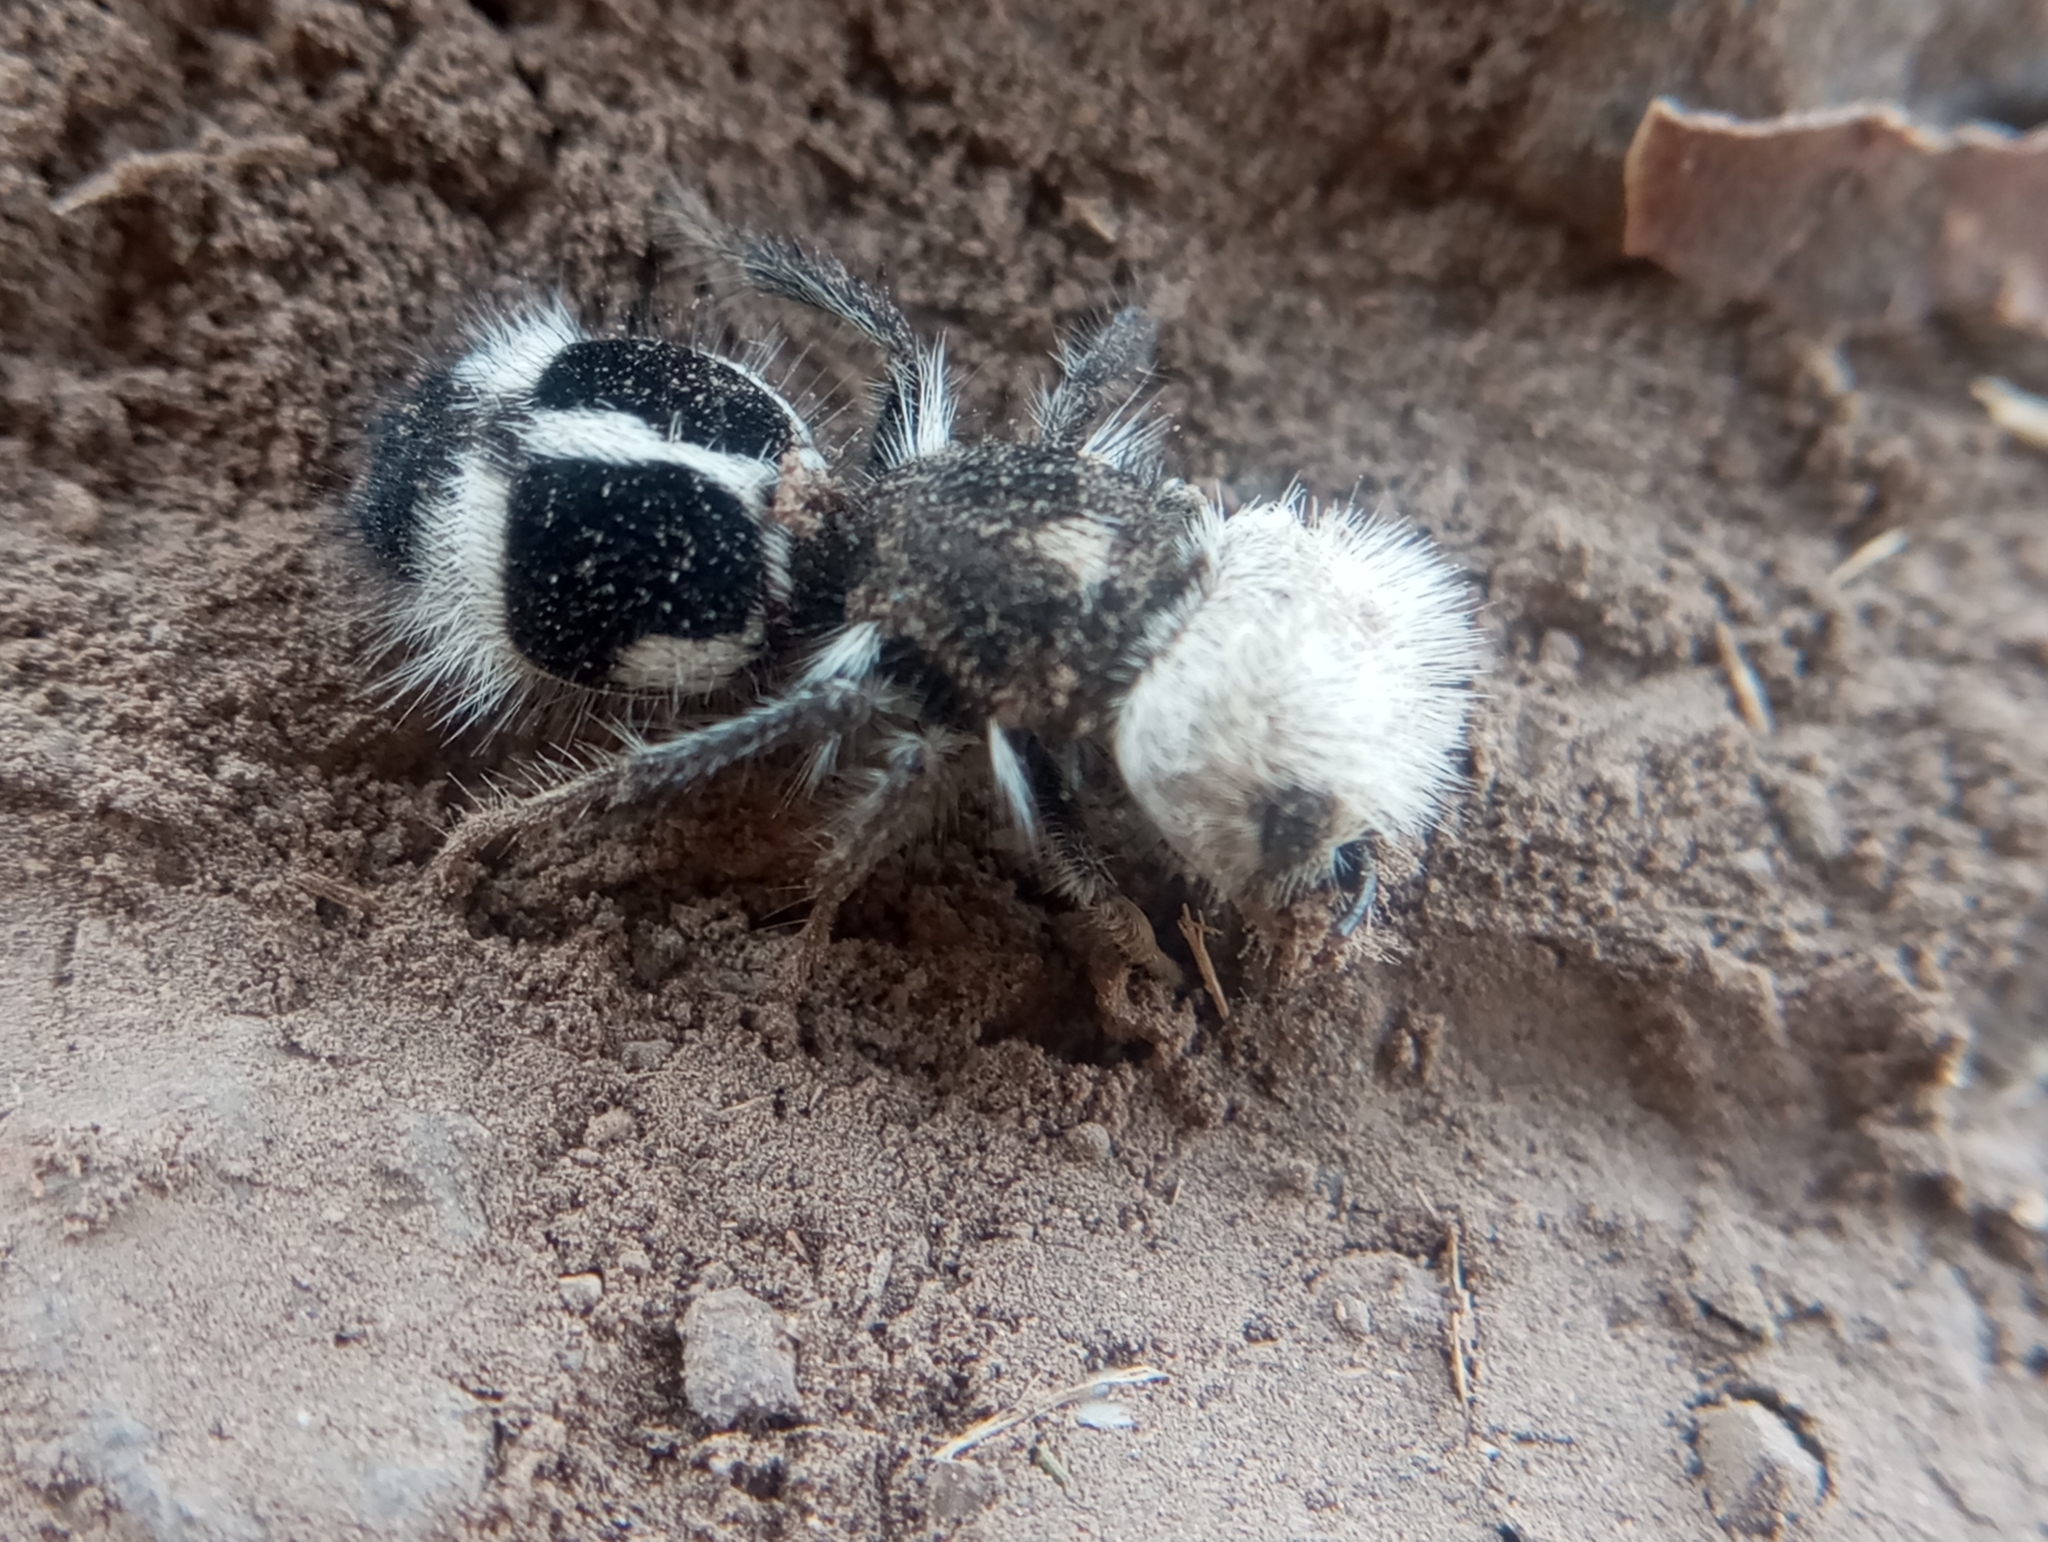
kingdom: Animalia
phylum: Arthropoda
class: Insecta
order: Hymenoptera
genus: Euspinolia
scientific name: Euspinolia
